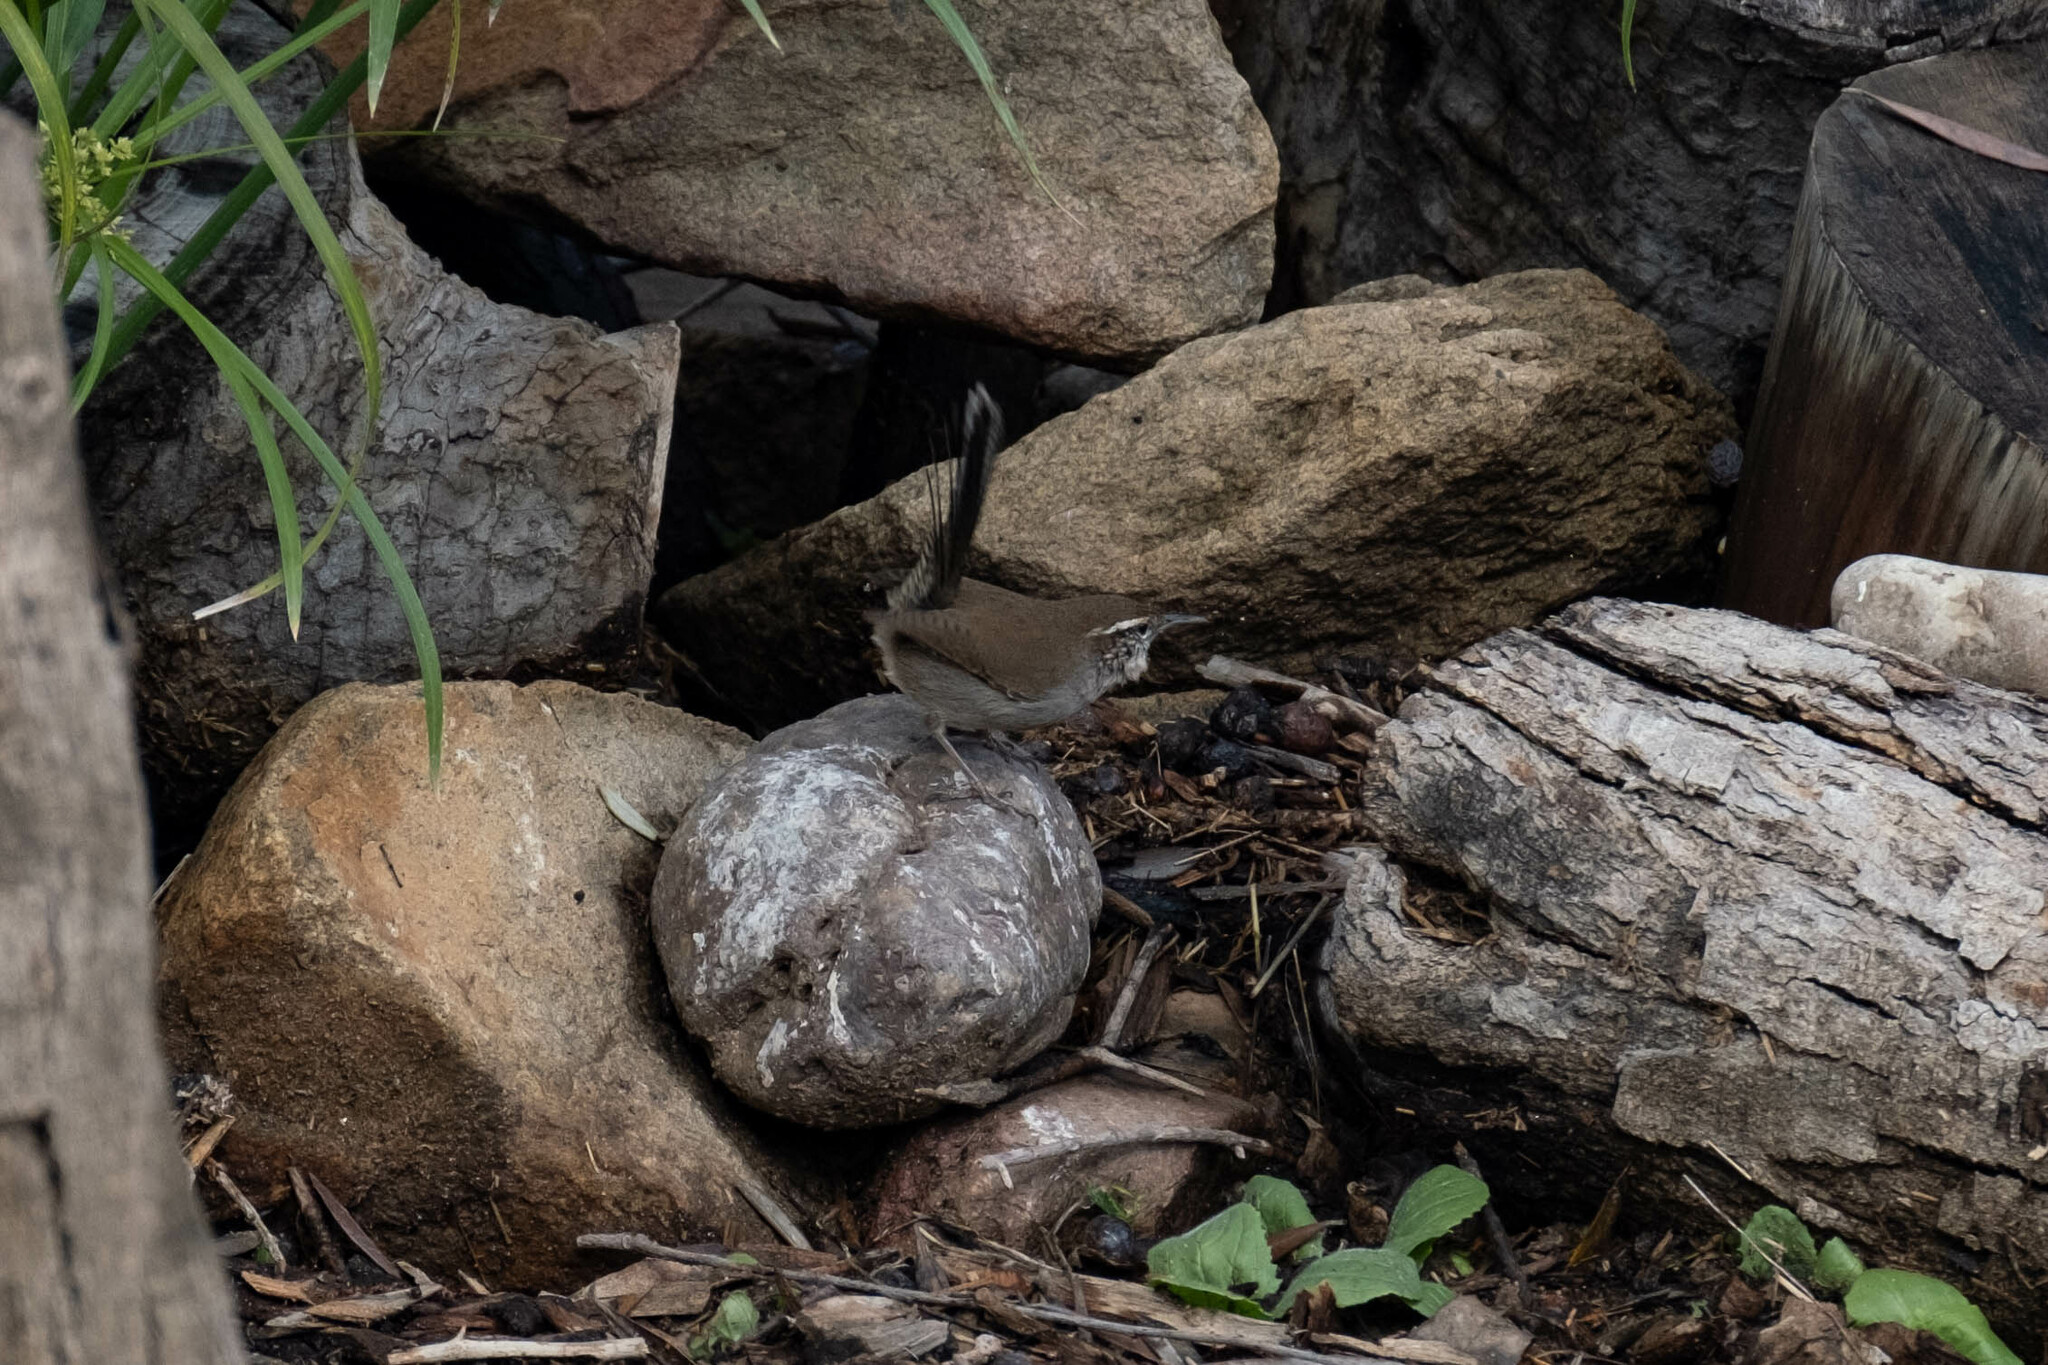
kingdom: Animalia
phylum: Chordata
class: Aves
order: Passeriformes
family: Troglodytidae
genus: Thryomanes
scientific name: Thryomanes bewickii
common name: Bewick's wren
